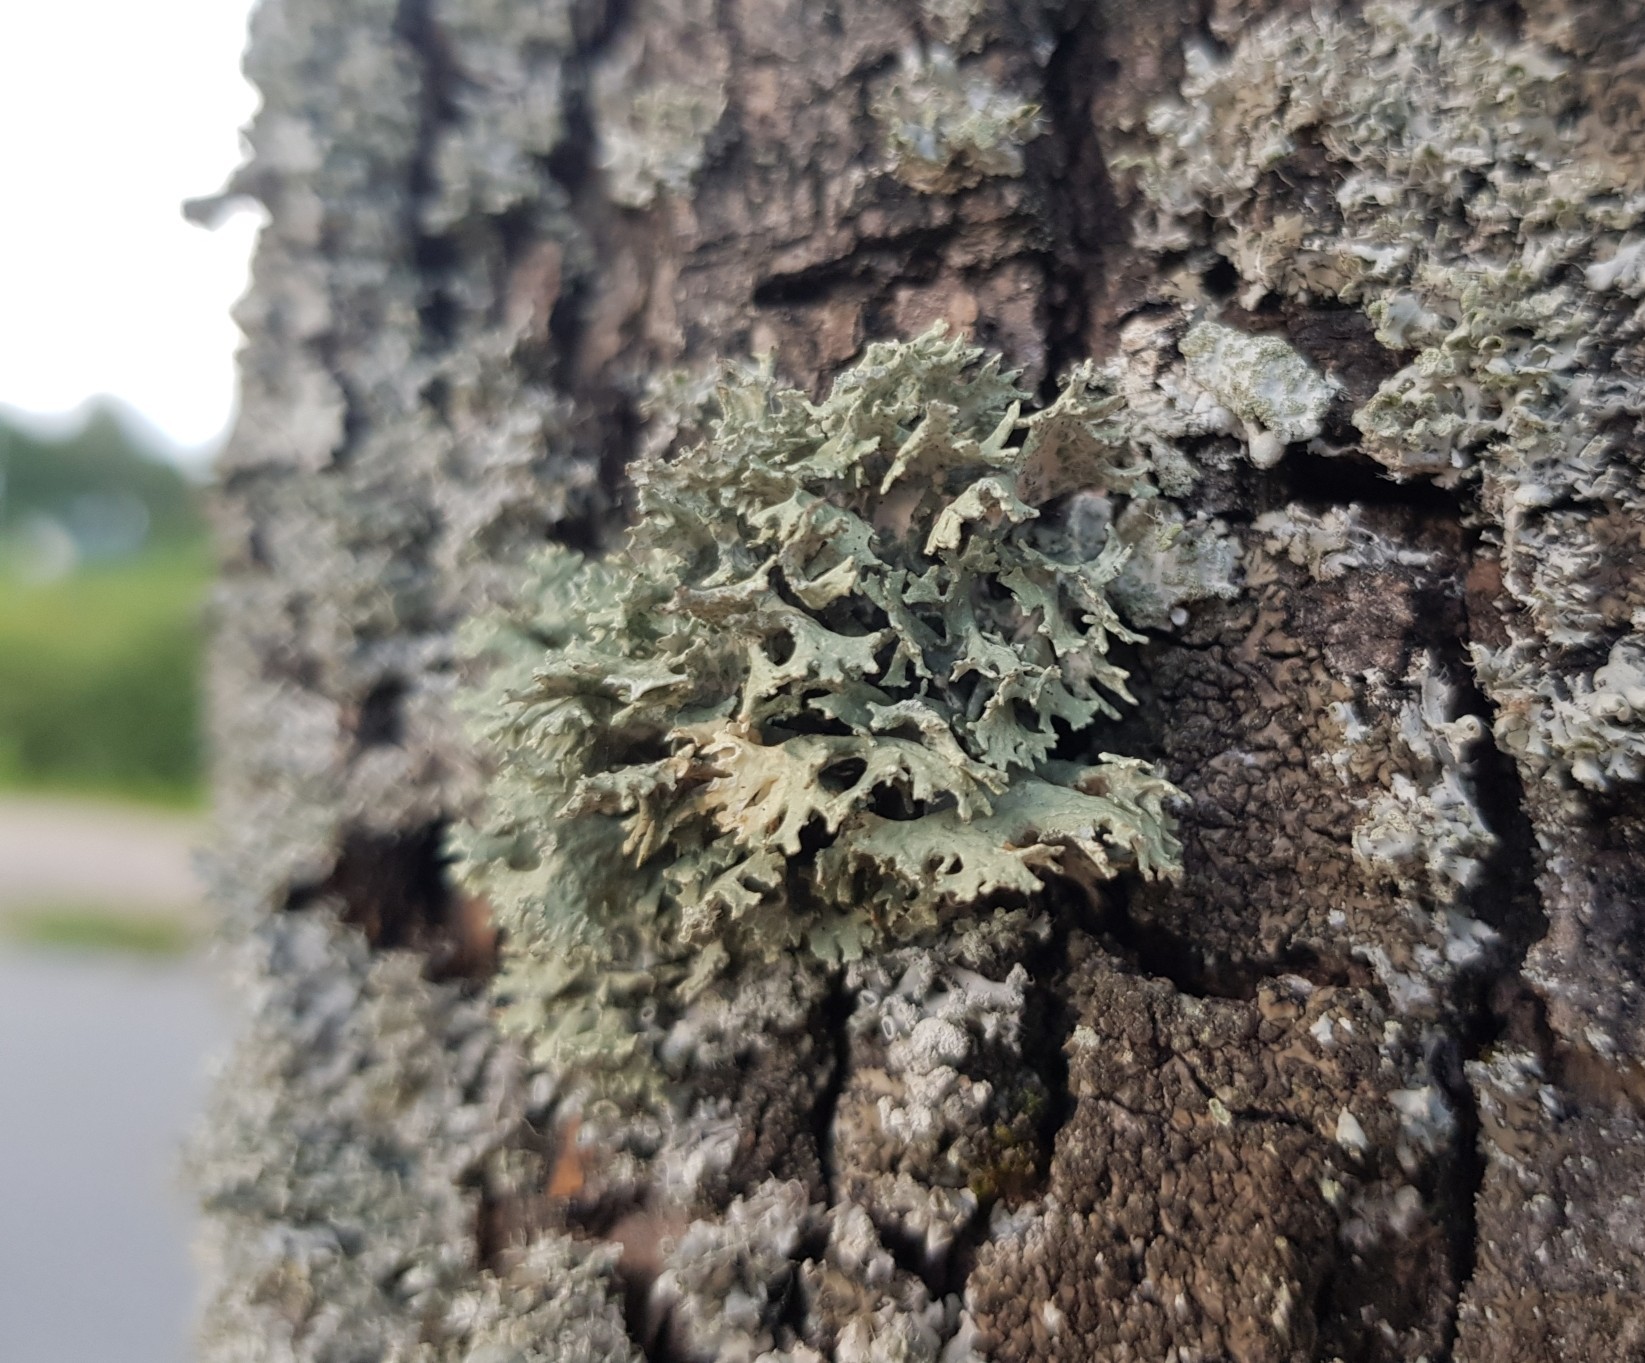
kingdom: Fungi
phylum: Ascomycota
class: Lecanoromycetes
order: Lecanorales
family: Parmeliaceae
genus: Evernia
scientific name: Evernia prunastri
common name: Oak moss
